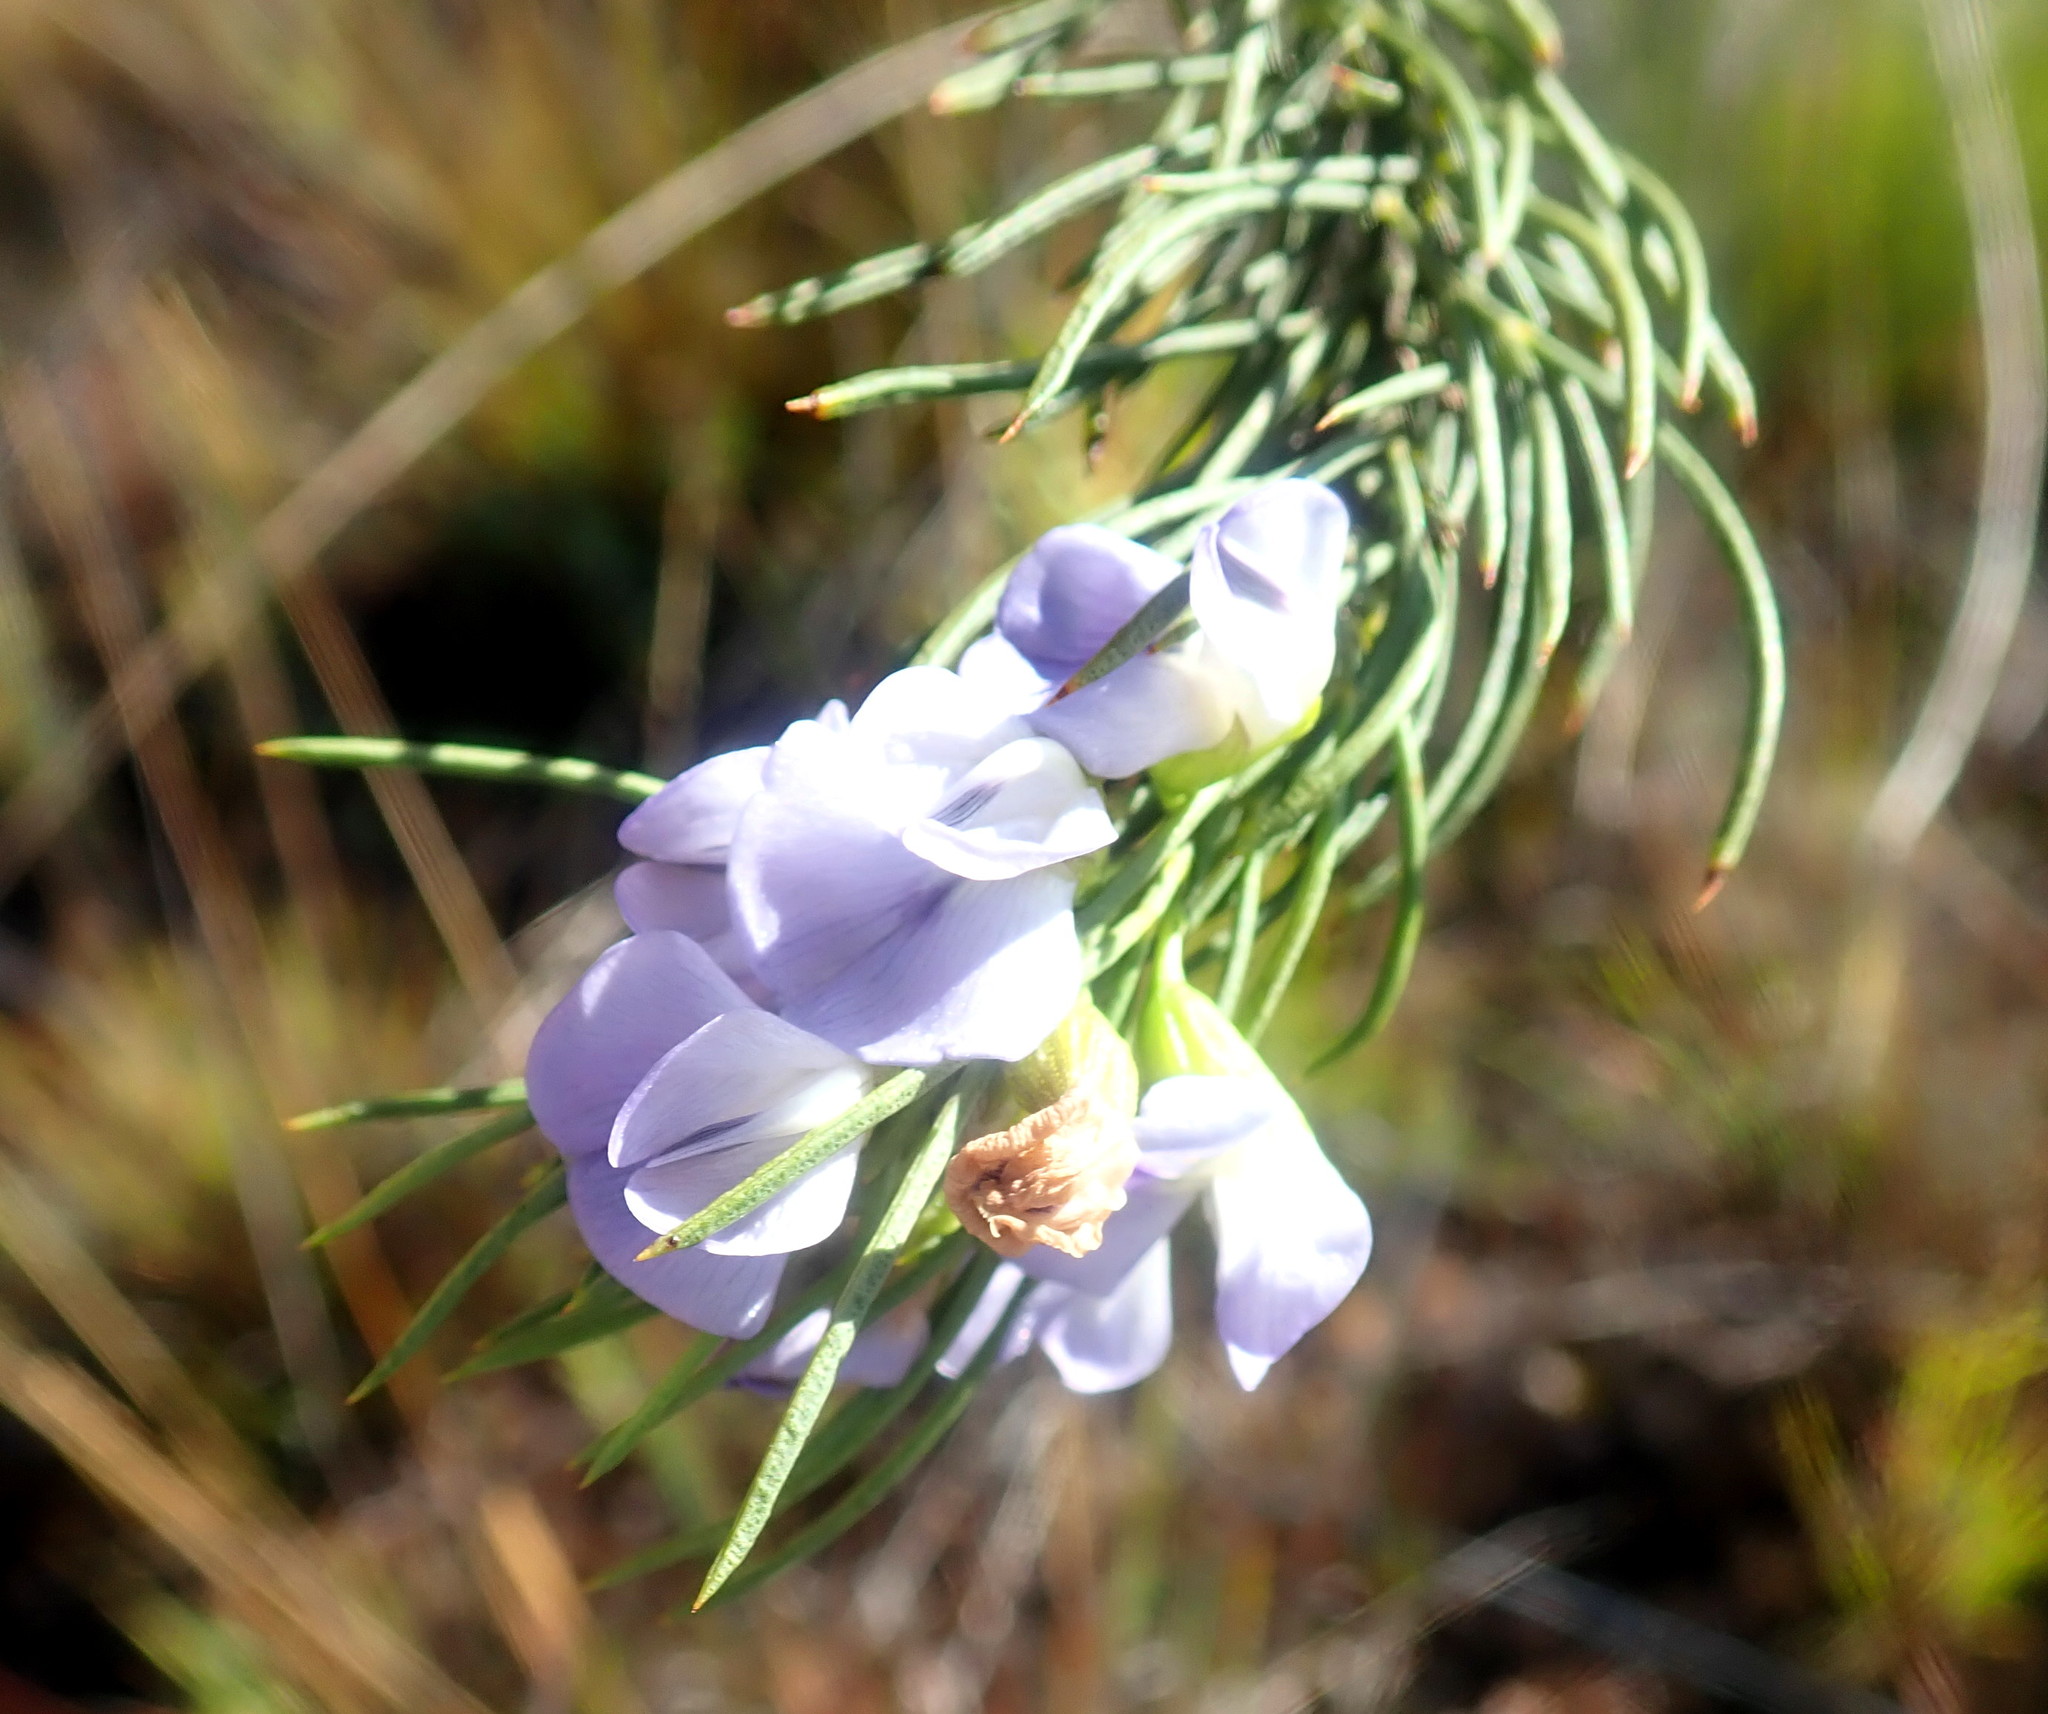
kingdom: Plantae
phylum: Tracheophyta
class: Magnoliopsida
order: Fabales
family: Fabaceae
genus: Psoralea
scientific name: Psoralea sordida
